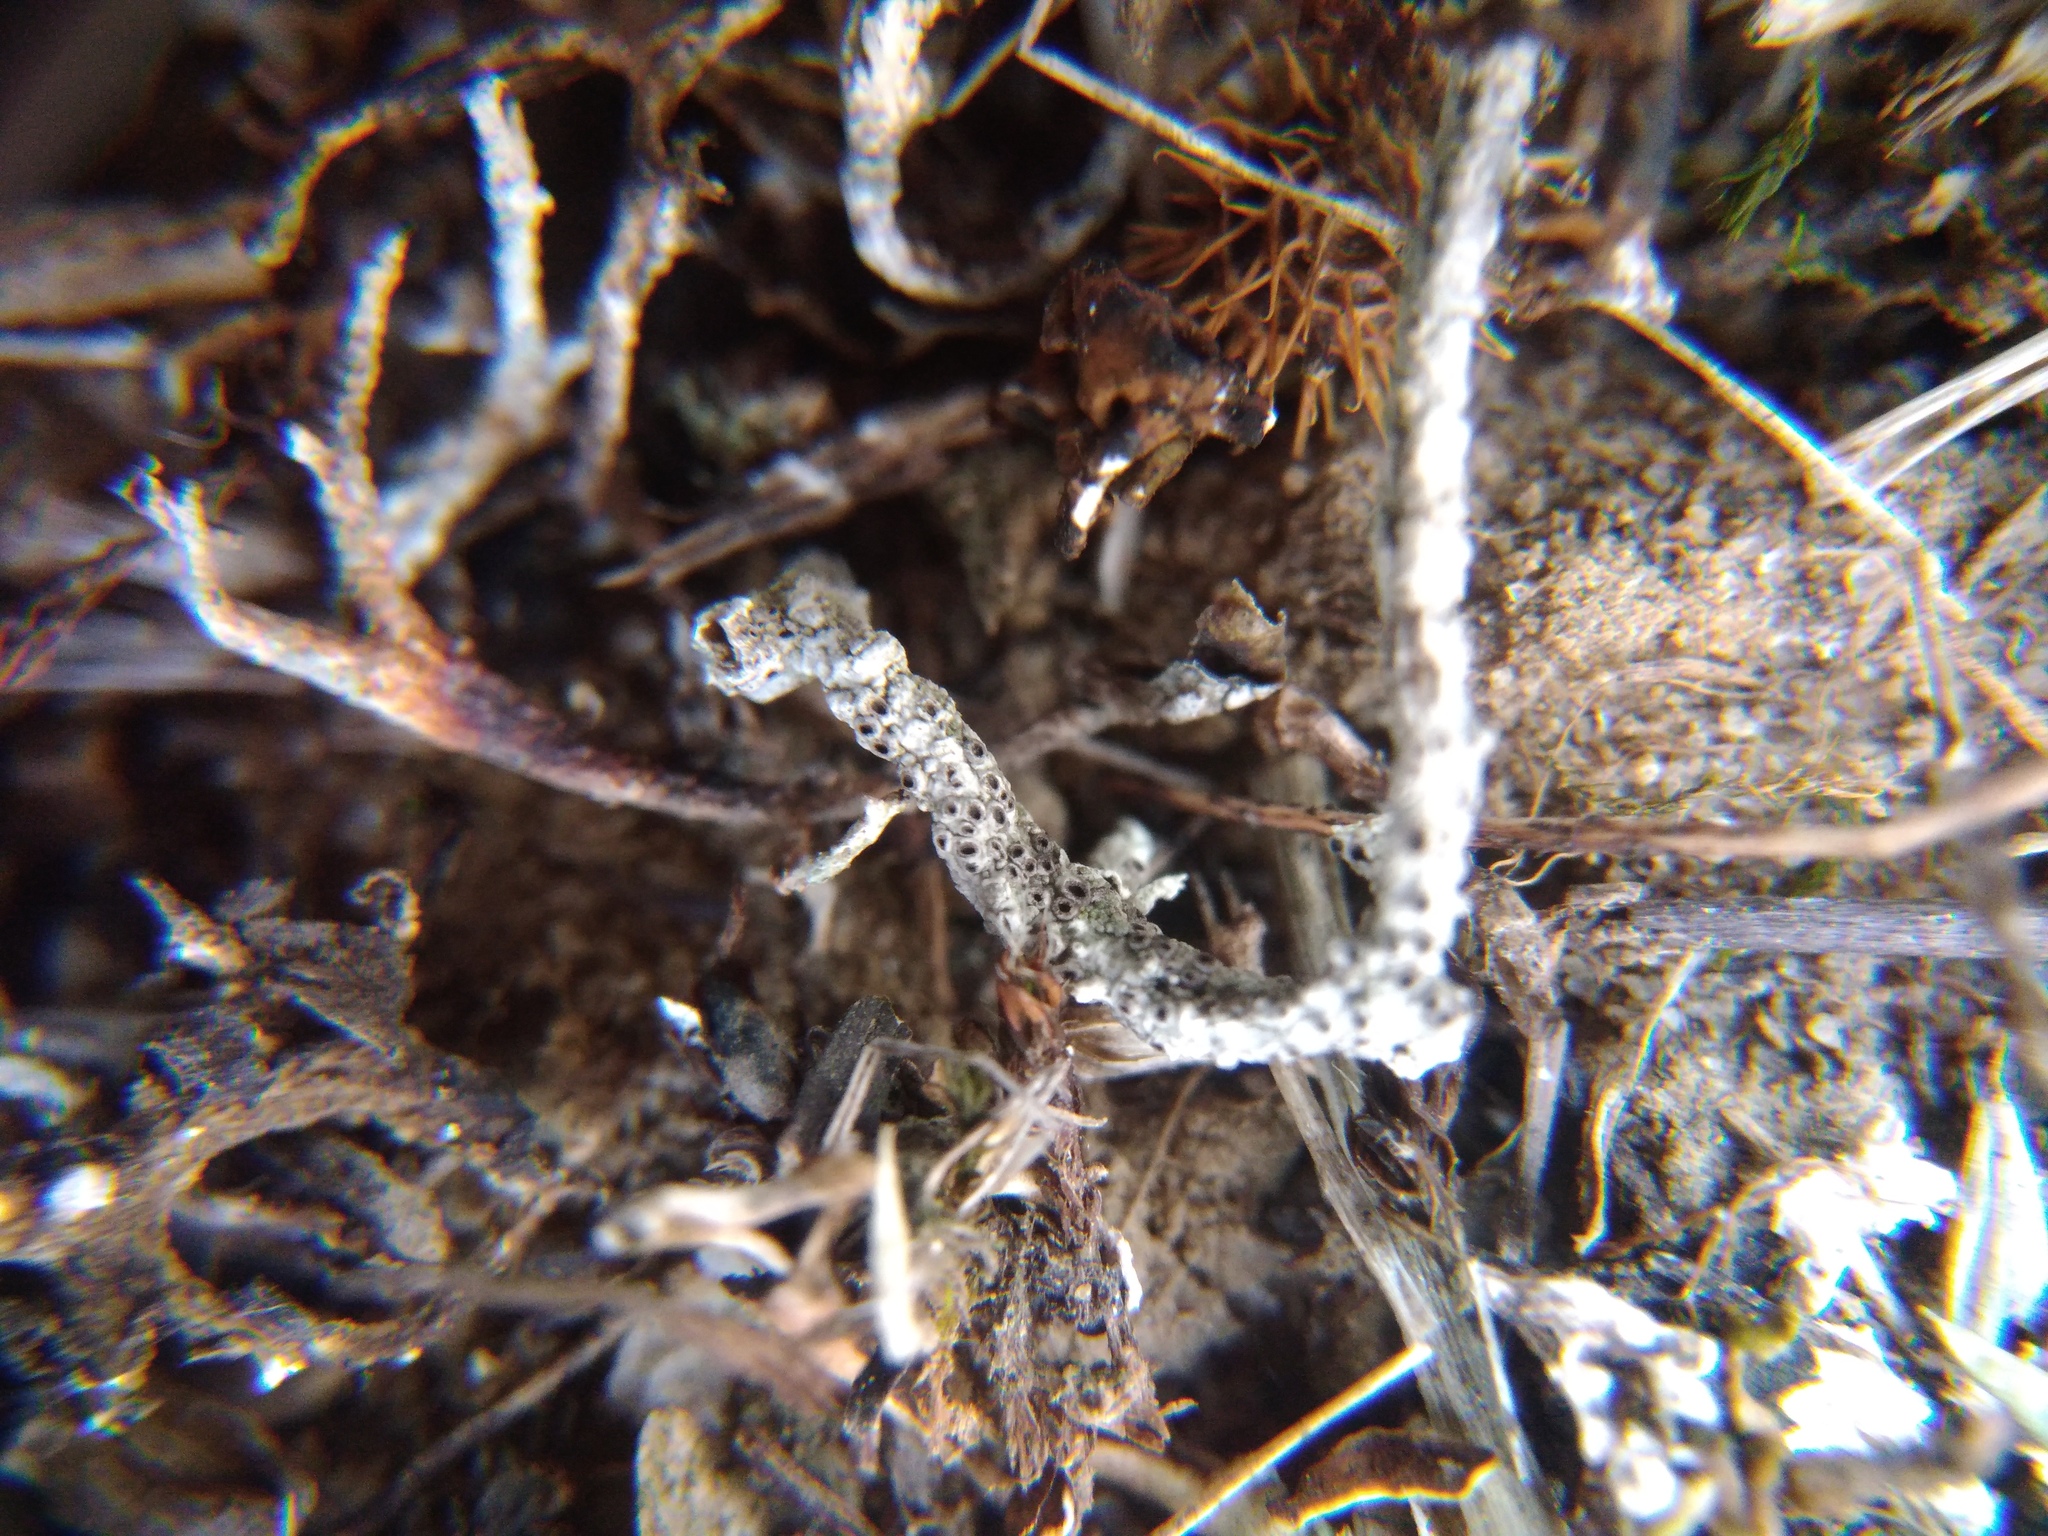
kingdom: Fungi
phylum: Ascomycota
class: Lecanoromycetes
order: Ostropales
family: Graphidaceae
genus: Diploschistes
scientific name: Diploschistes muscorum
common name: Cowpie lichen
